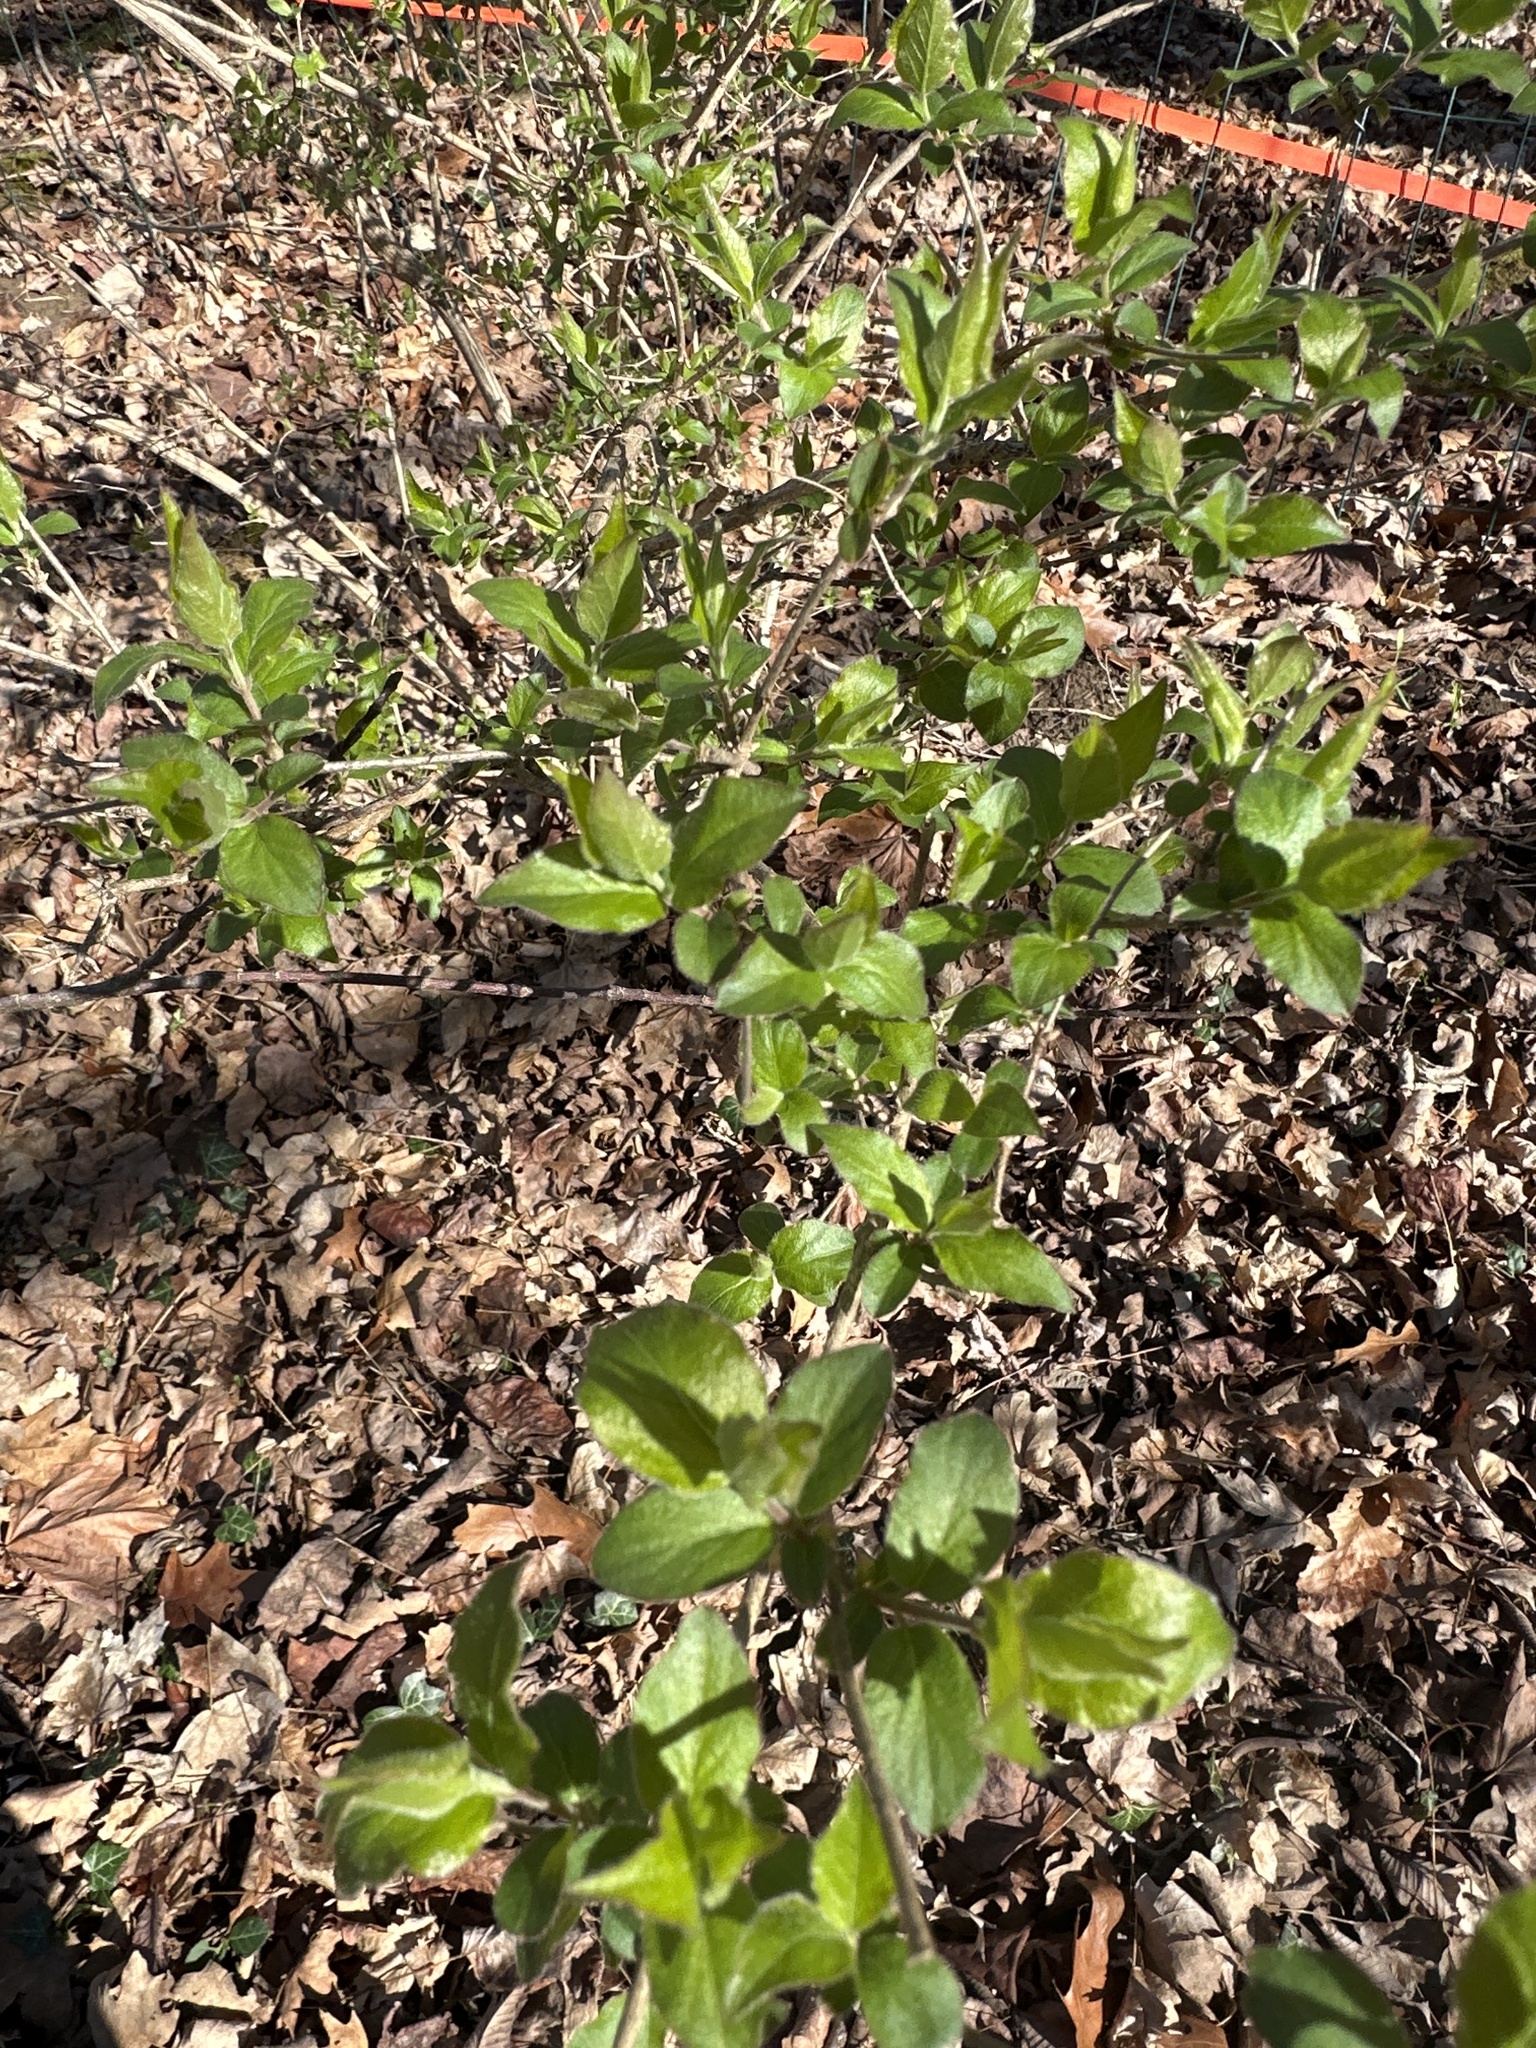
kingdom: Plantae
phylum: Tracheophyta
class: Magnoliopsida
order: Dipsacales
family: Caprifoliaceae
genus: Lonicera
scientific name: Lonicera maackii
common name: Amur honeysuckle
